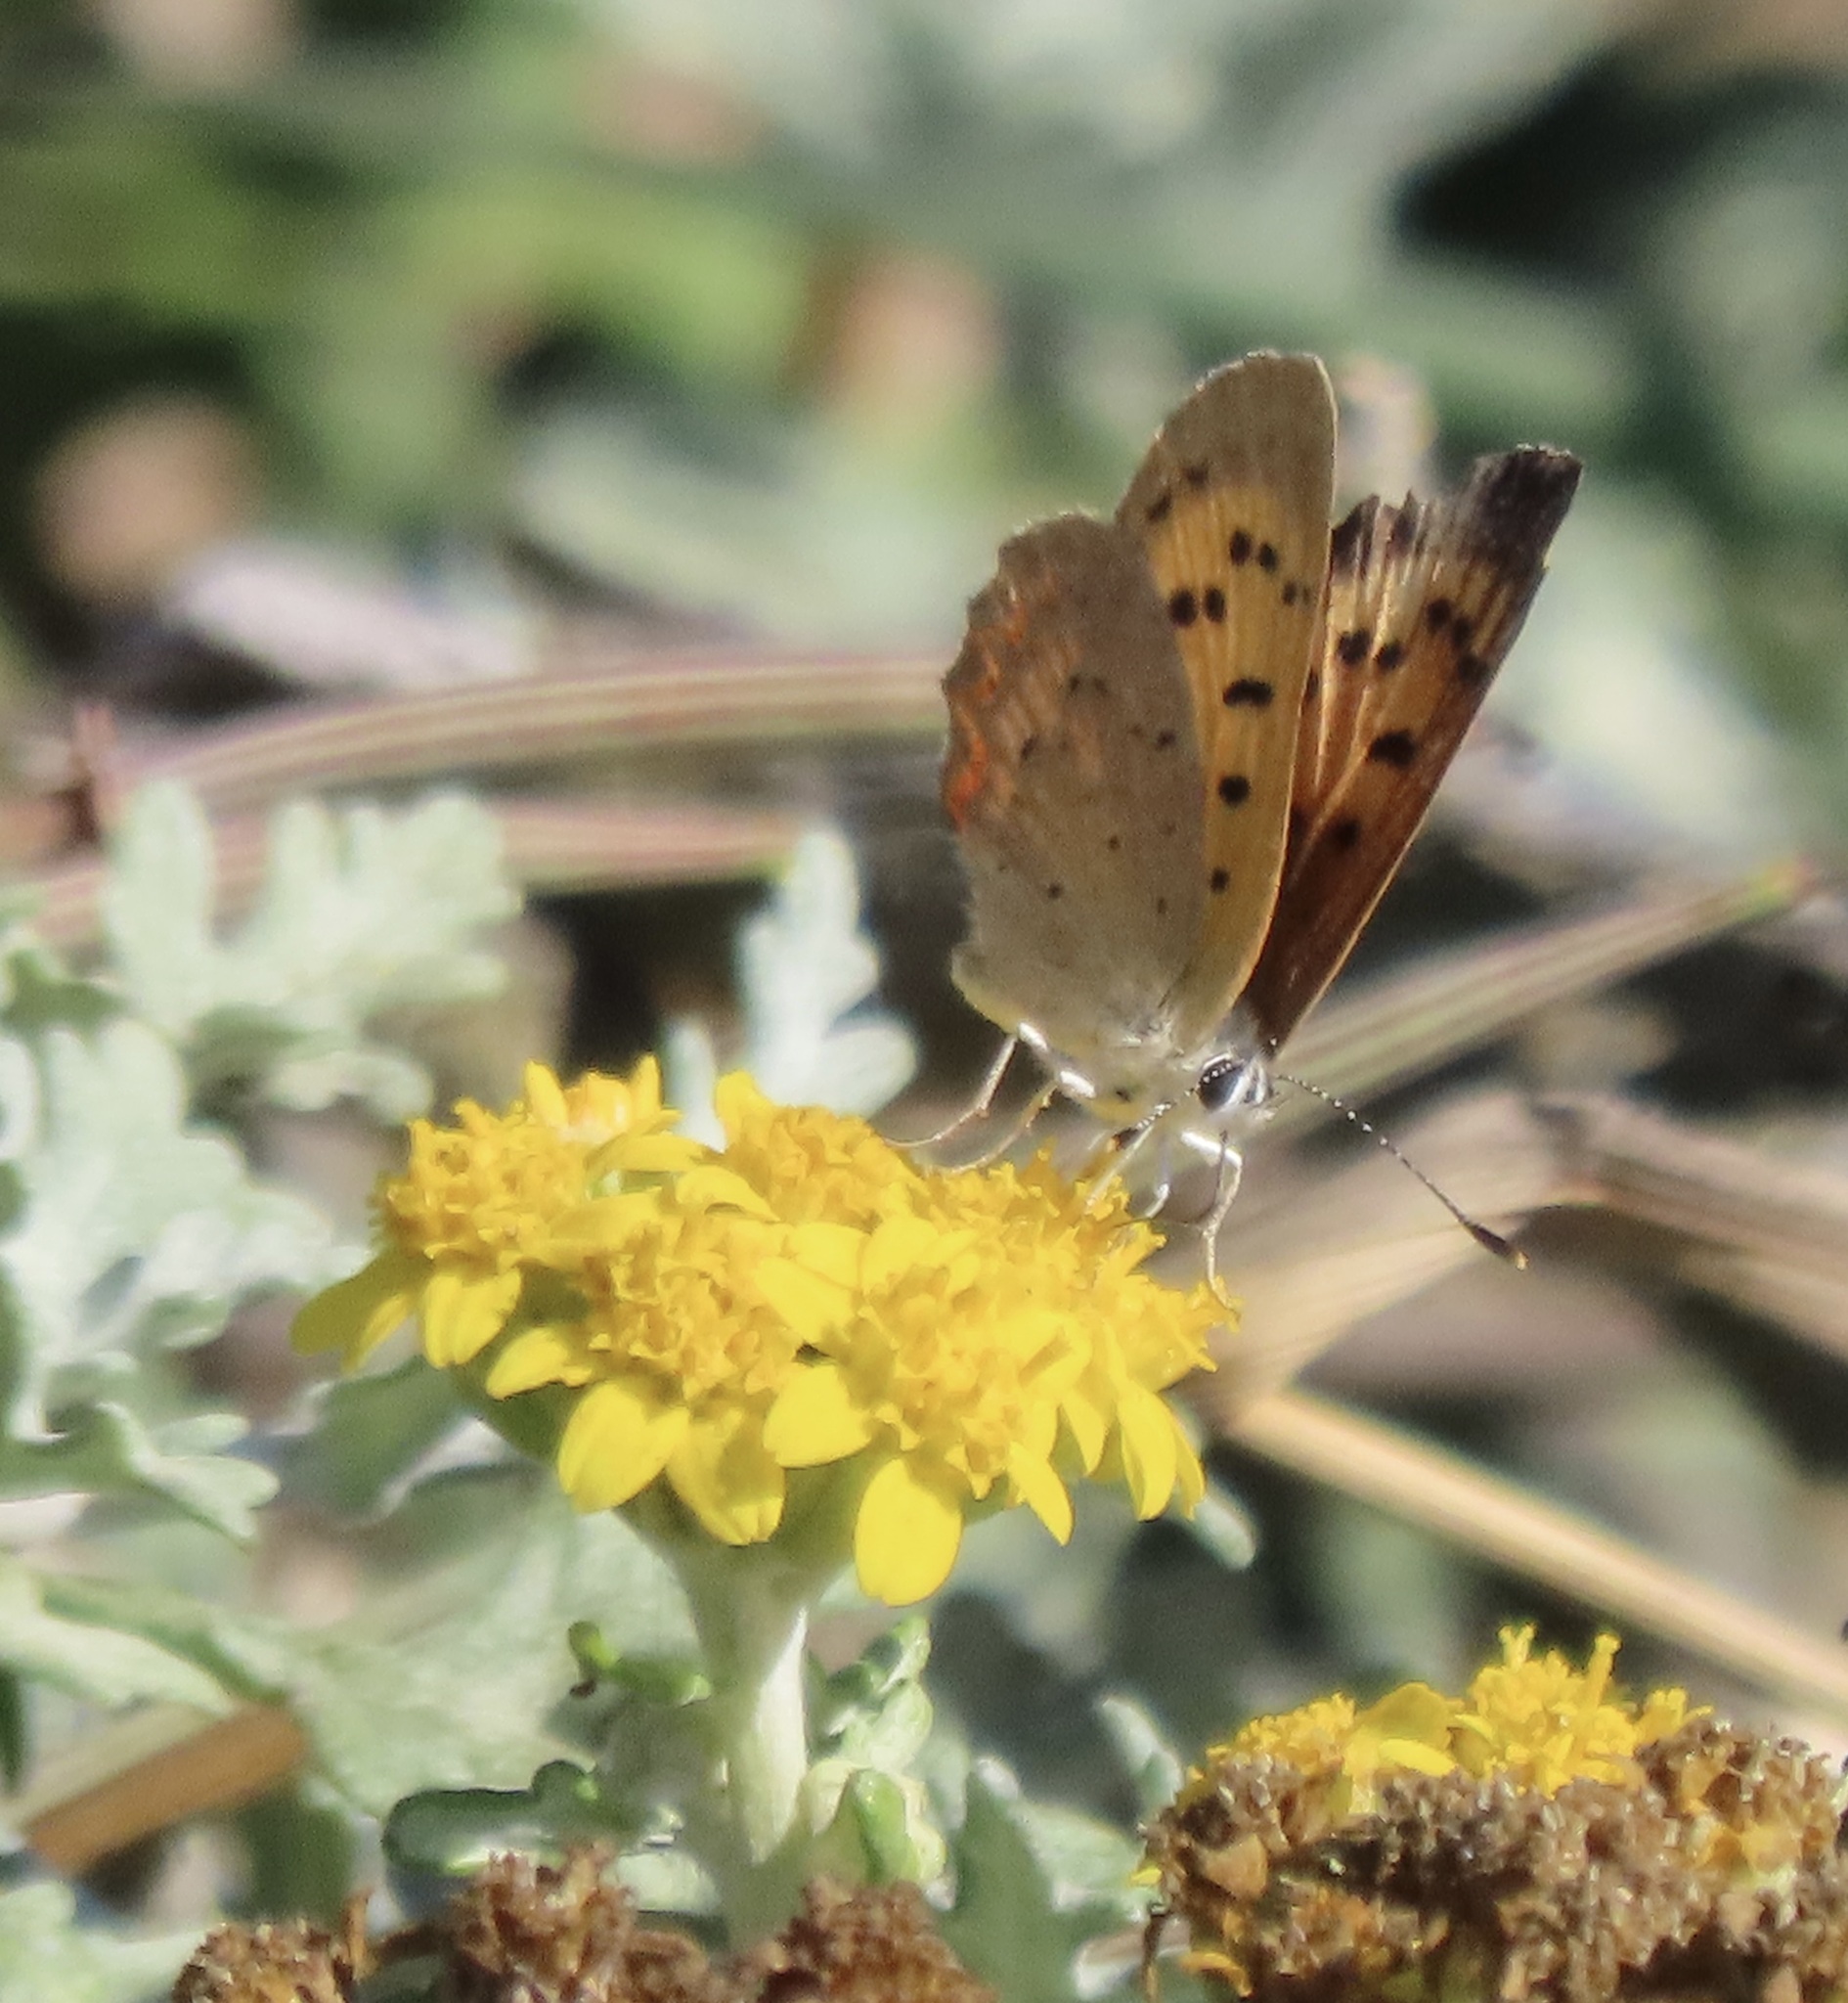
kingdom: Animalia
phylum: Arthropoda
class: Insecta
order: Lepidoptera
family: Lycaenidae
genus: Tharsalea
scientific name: Tharsalea helloides
